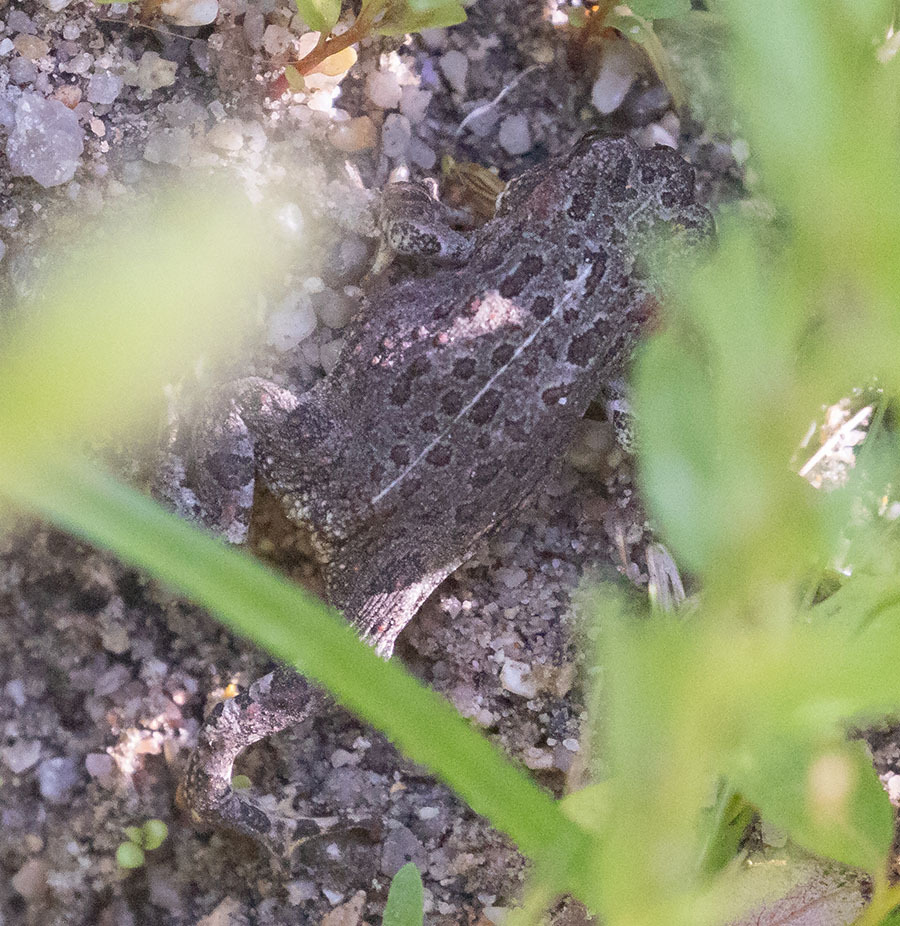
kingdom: Animalia
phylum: Chordata
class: Amphibia
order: Anura
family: Bufonidae
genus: Anaxyrus
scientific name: Anaxyrus boreas
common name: Western toad
